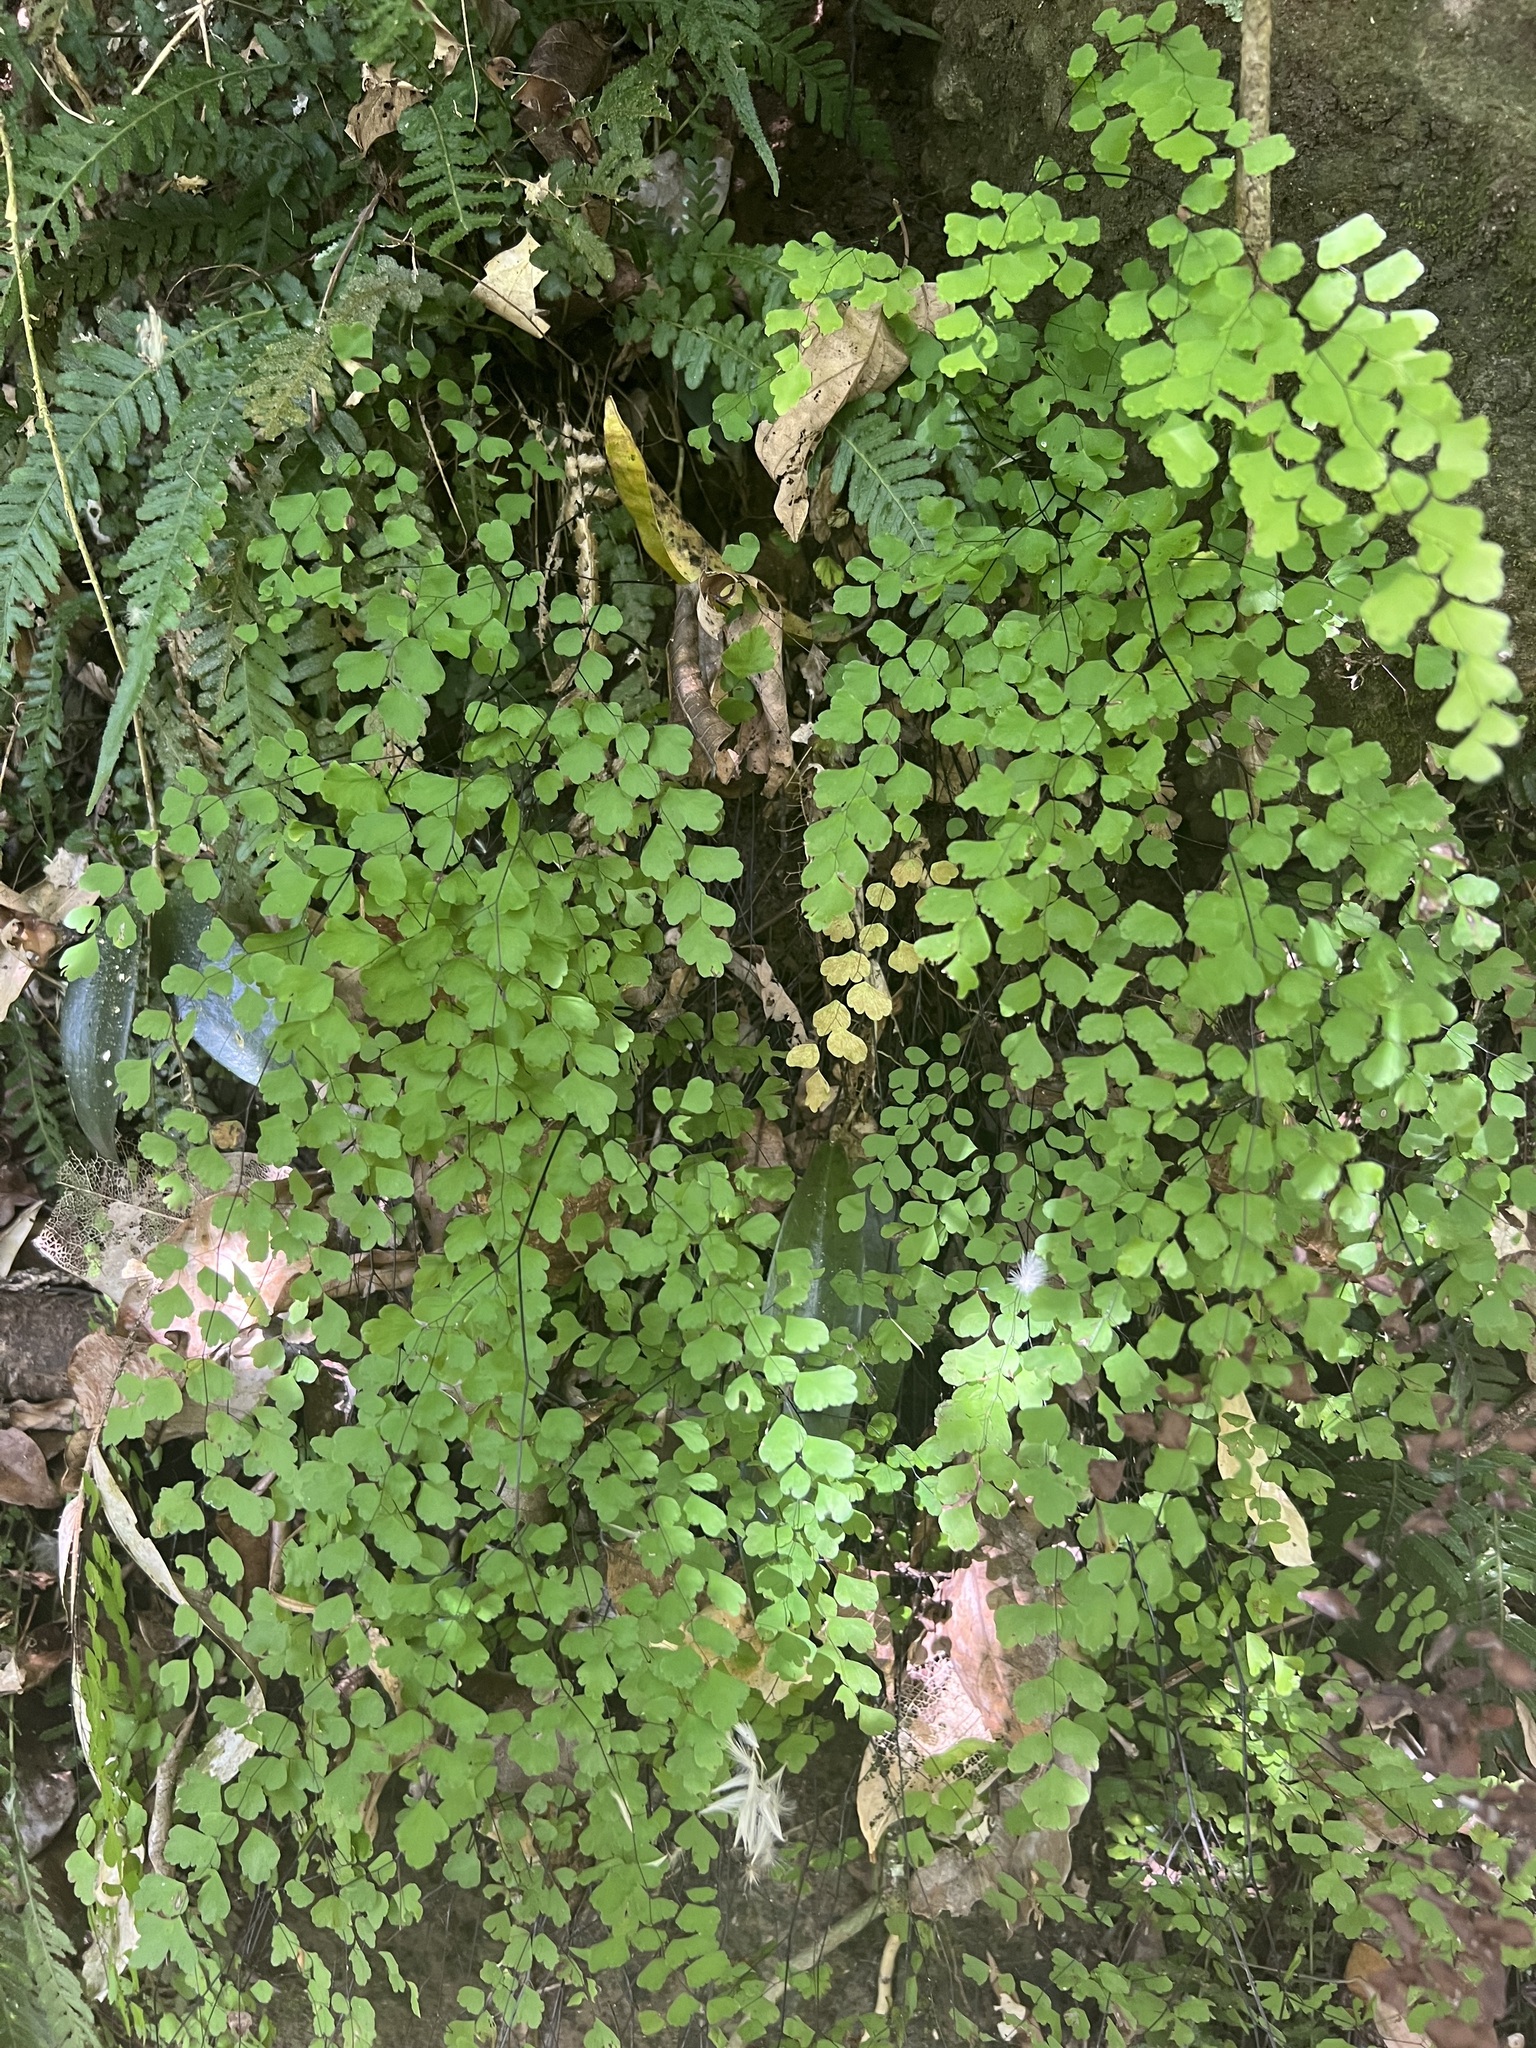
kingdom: Plantae
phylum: Tracheophyta
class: Polypodiopsida
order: Polypodiales
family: Pteridaceae
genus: Adiantum
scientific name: Adiantum atroviride
